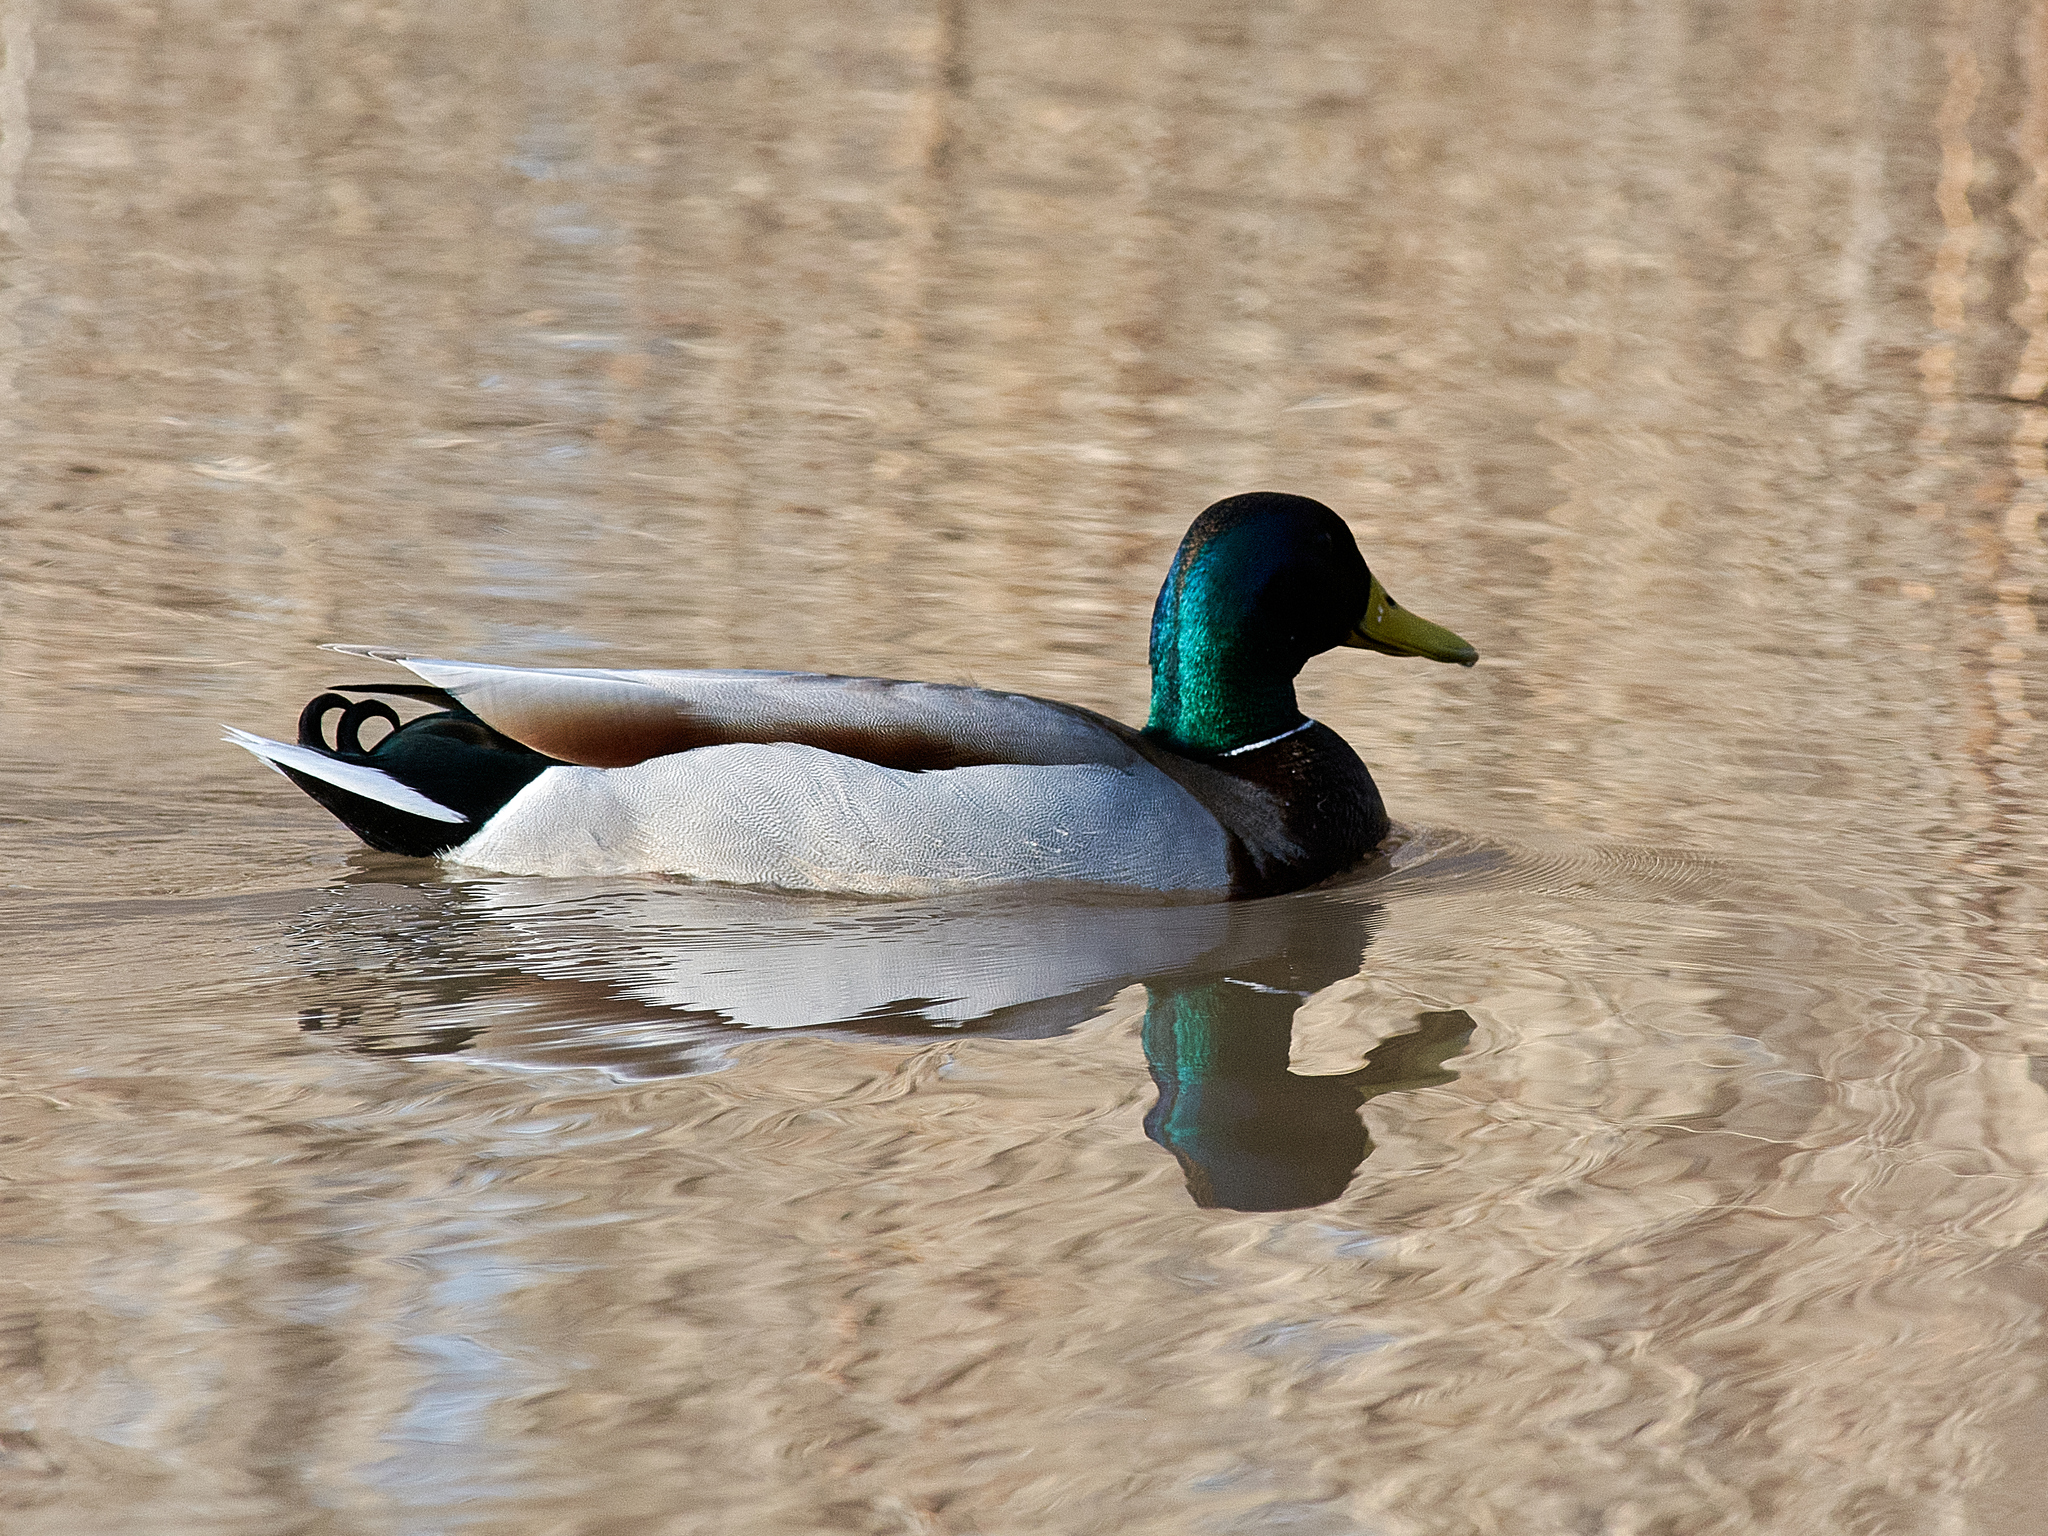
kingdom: Animalia
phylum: Chordata
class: Aves
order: Anseriformes
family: Anatidae
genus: Anas
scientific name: Anas platyrhynchos
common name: Mallard
